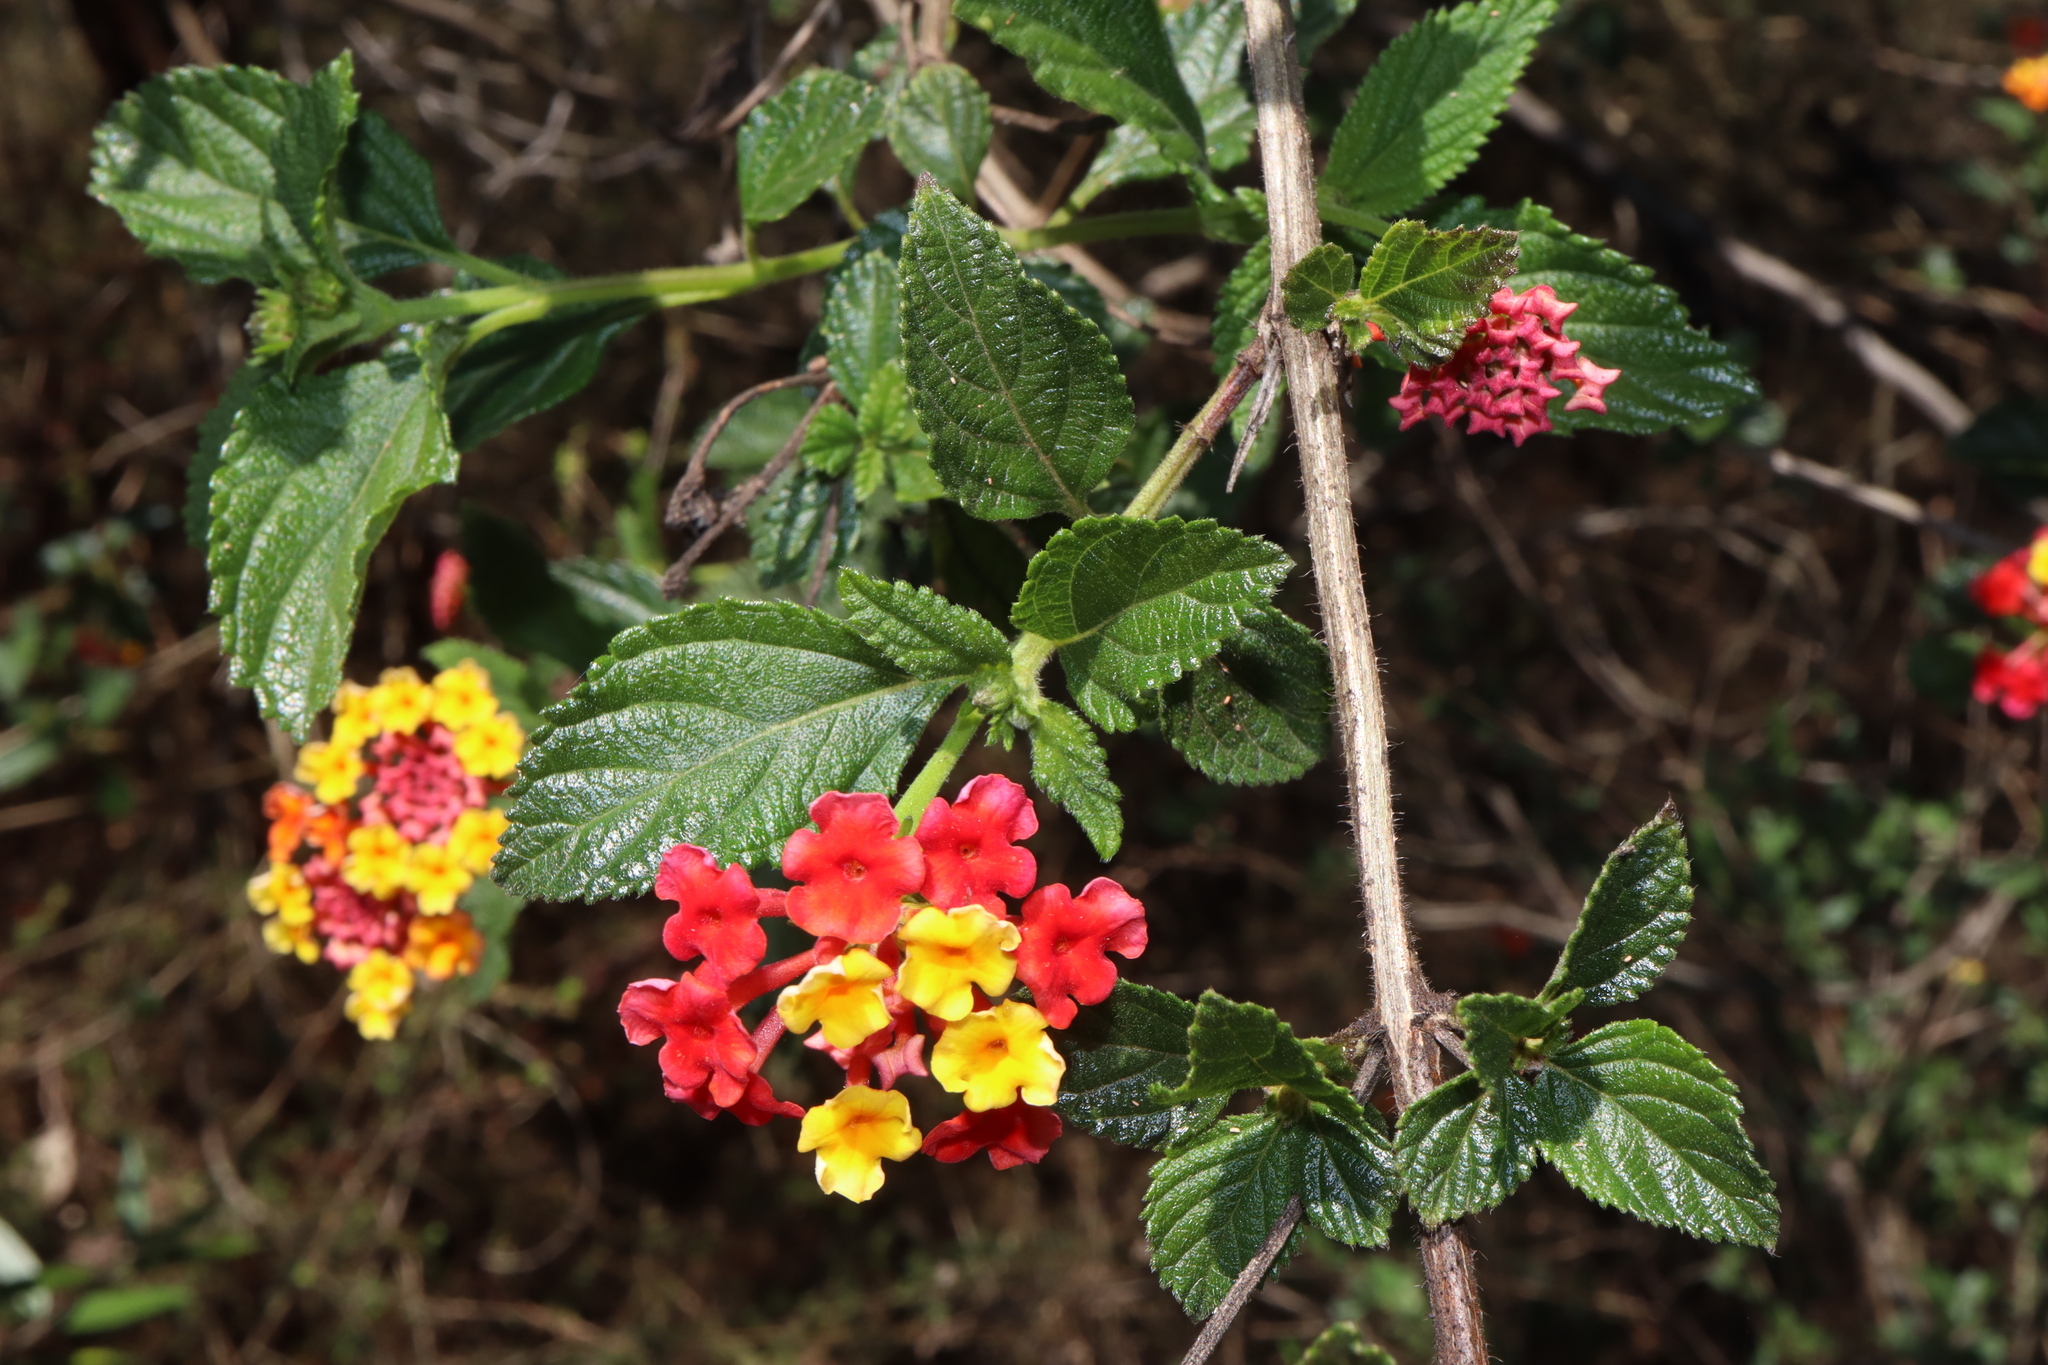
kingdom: Plantae
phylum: Tracheophyta
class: Magnoliopsida
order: Lamiales
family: Verbenaceae
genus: Lantana
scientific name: Lantana camara
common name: Lantana
